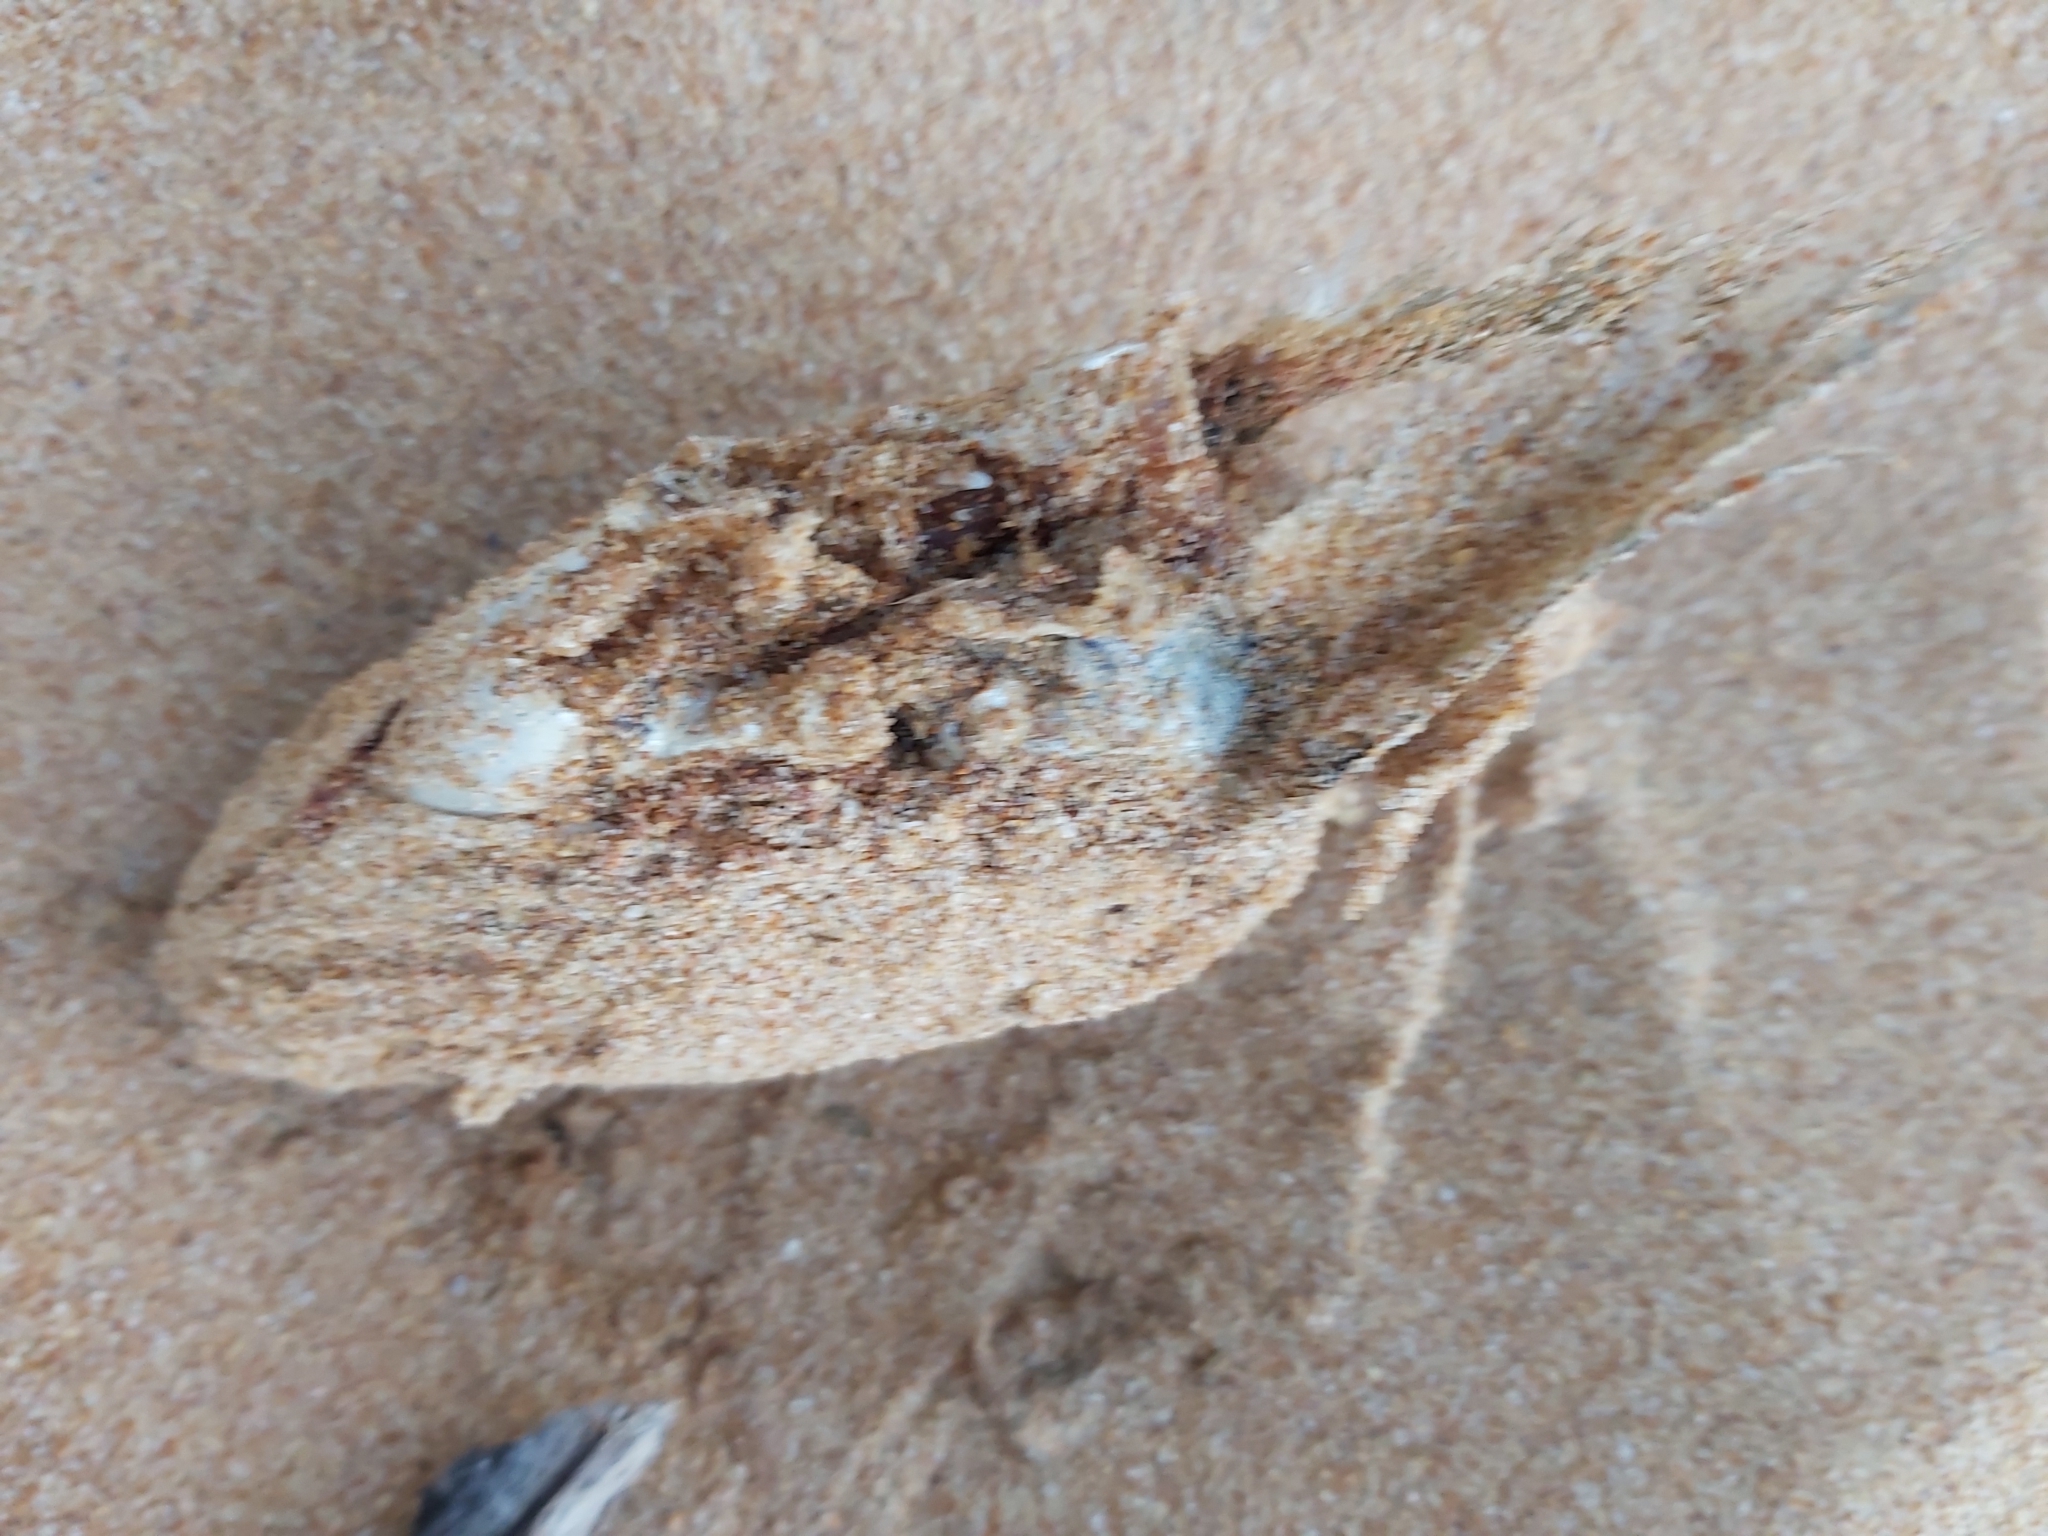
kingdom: Animalia
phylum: Chordata
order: Perciformes
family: Sciaenidae
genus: Argyrosomus
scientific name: Argyrosomus japonicus
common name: Japanese meagre
